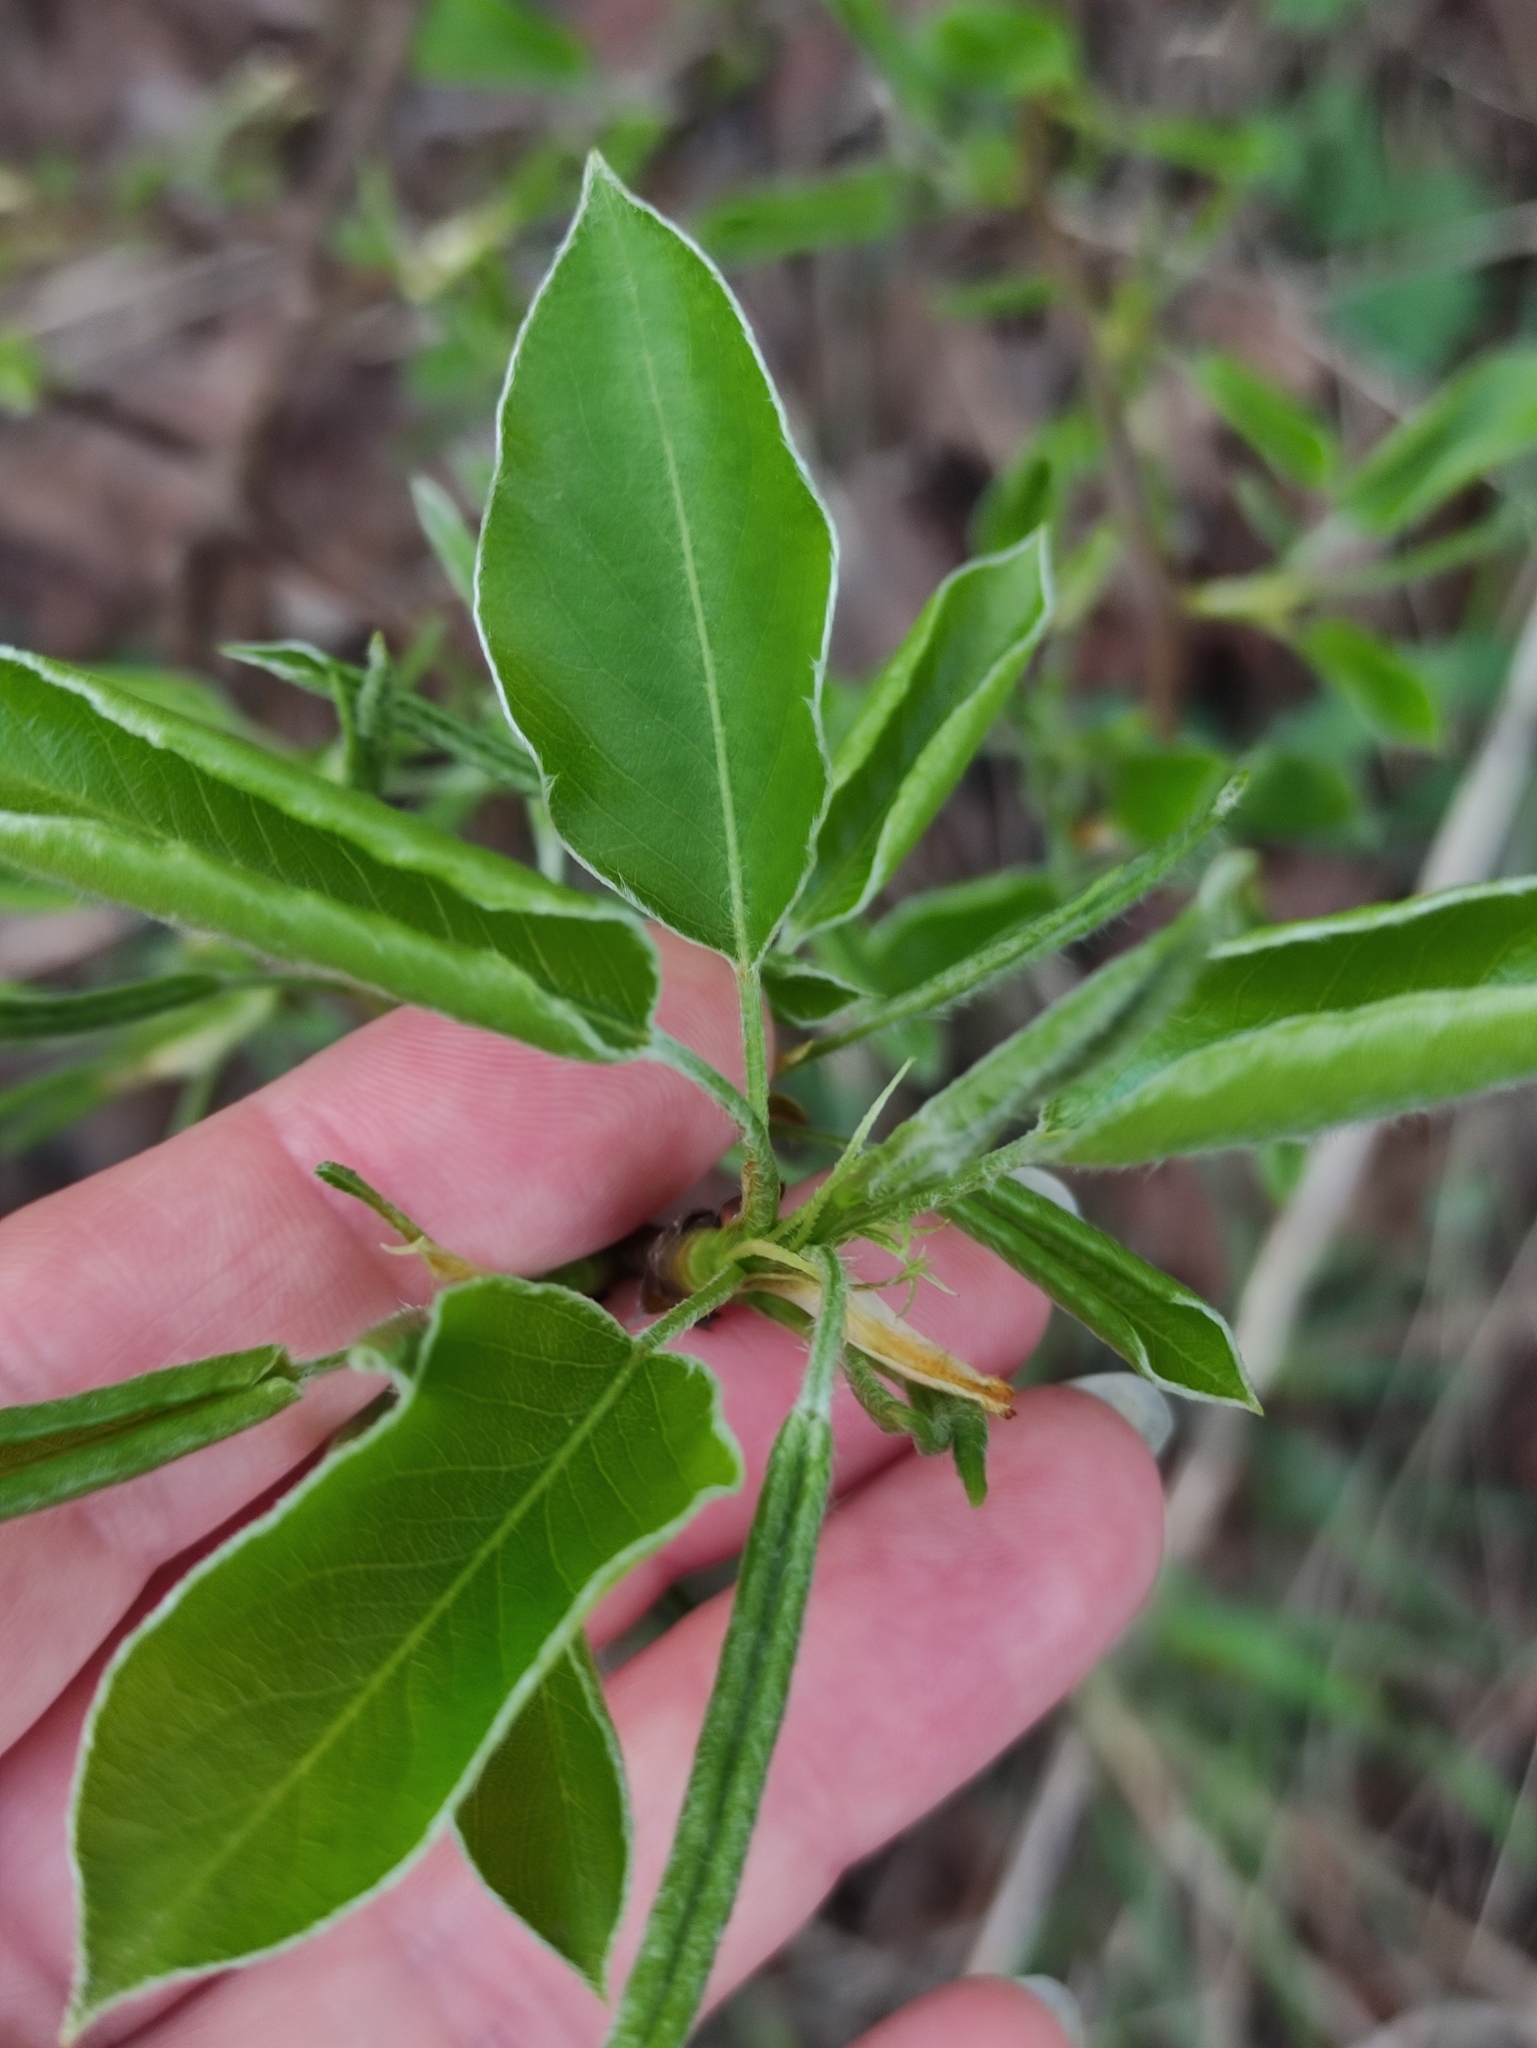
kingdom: Plantae
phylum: Tracheophyta
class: Magnoliopsida
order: Rosales
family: Rosaceae
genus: Pyrus
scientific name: Pyrus communis
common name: Pear
